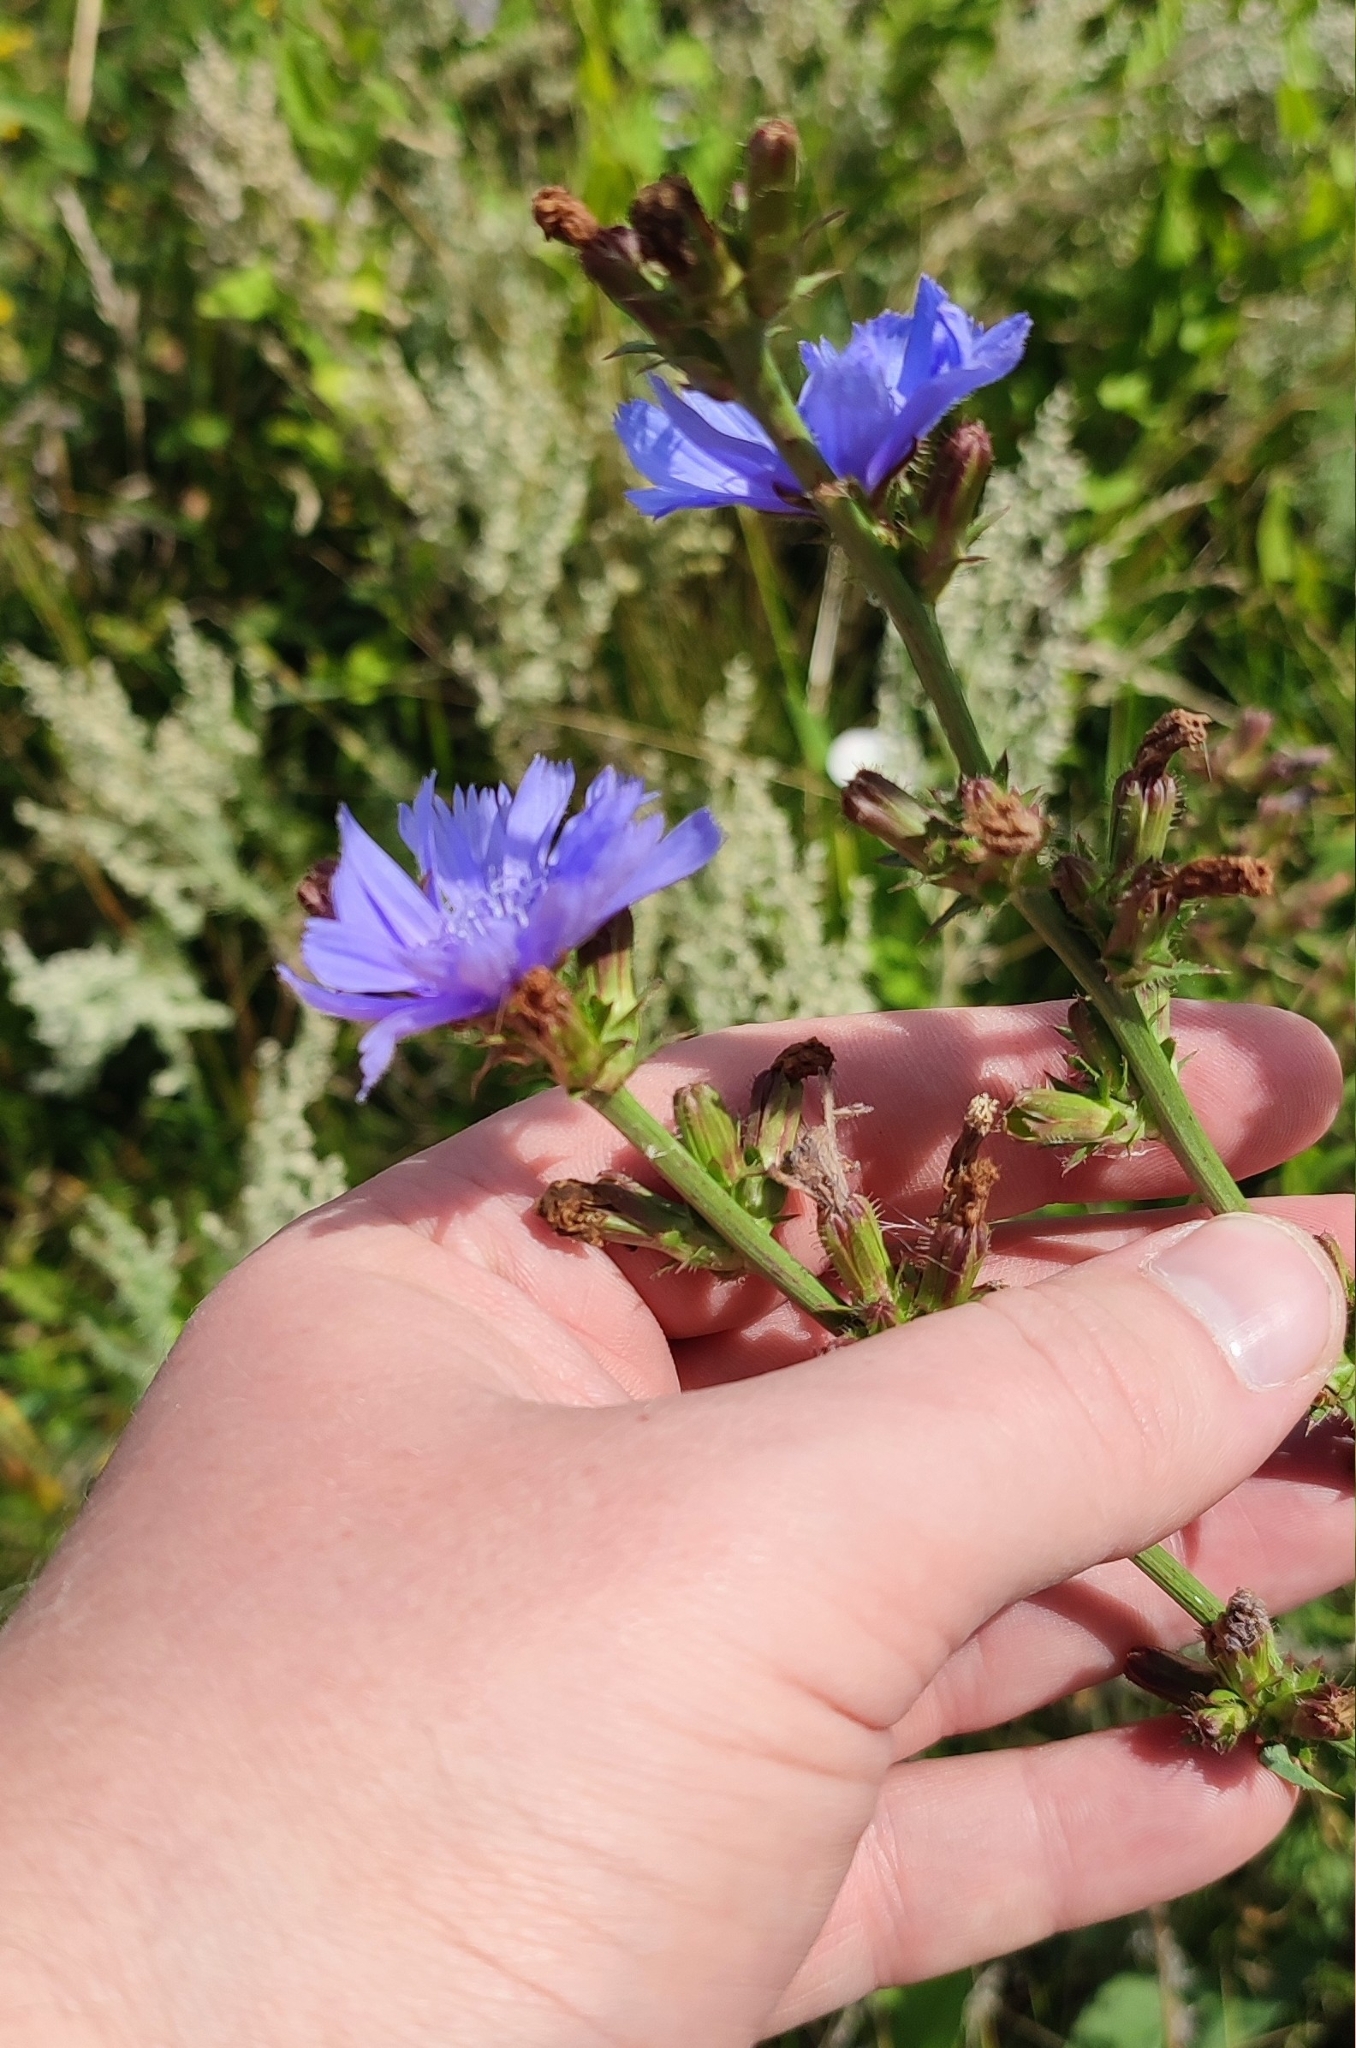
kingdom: Plantae
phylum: Tracheophyta
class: Magnoliopsida
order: Asterales
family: Asteraceae
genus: Cichorium
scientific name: Cichorium intybus
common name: Chicory
